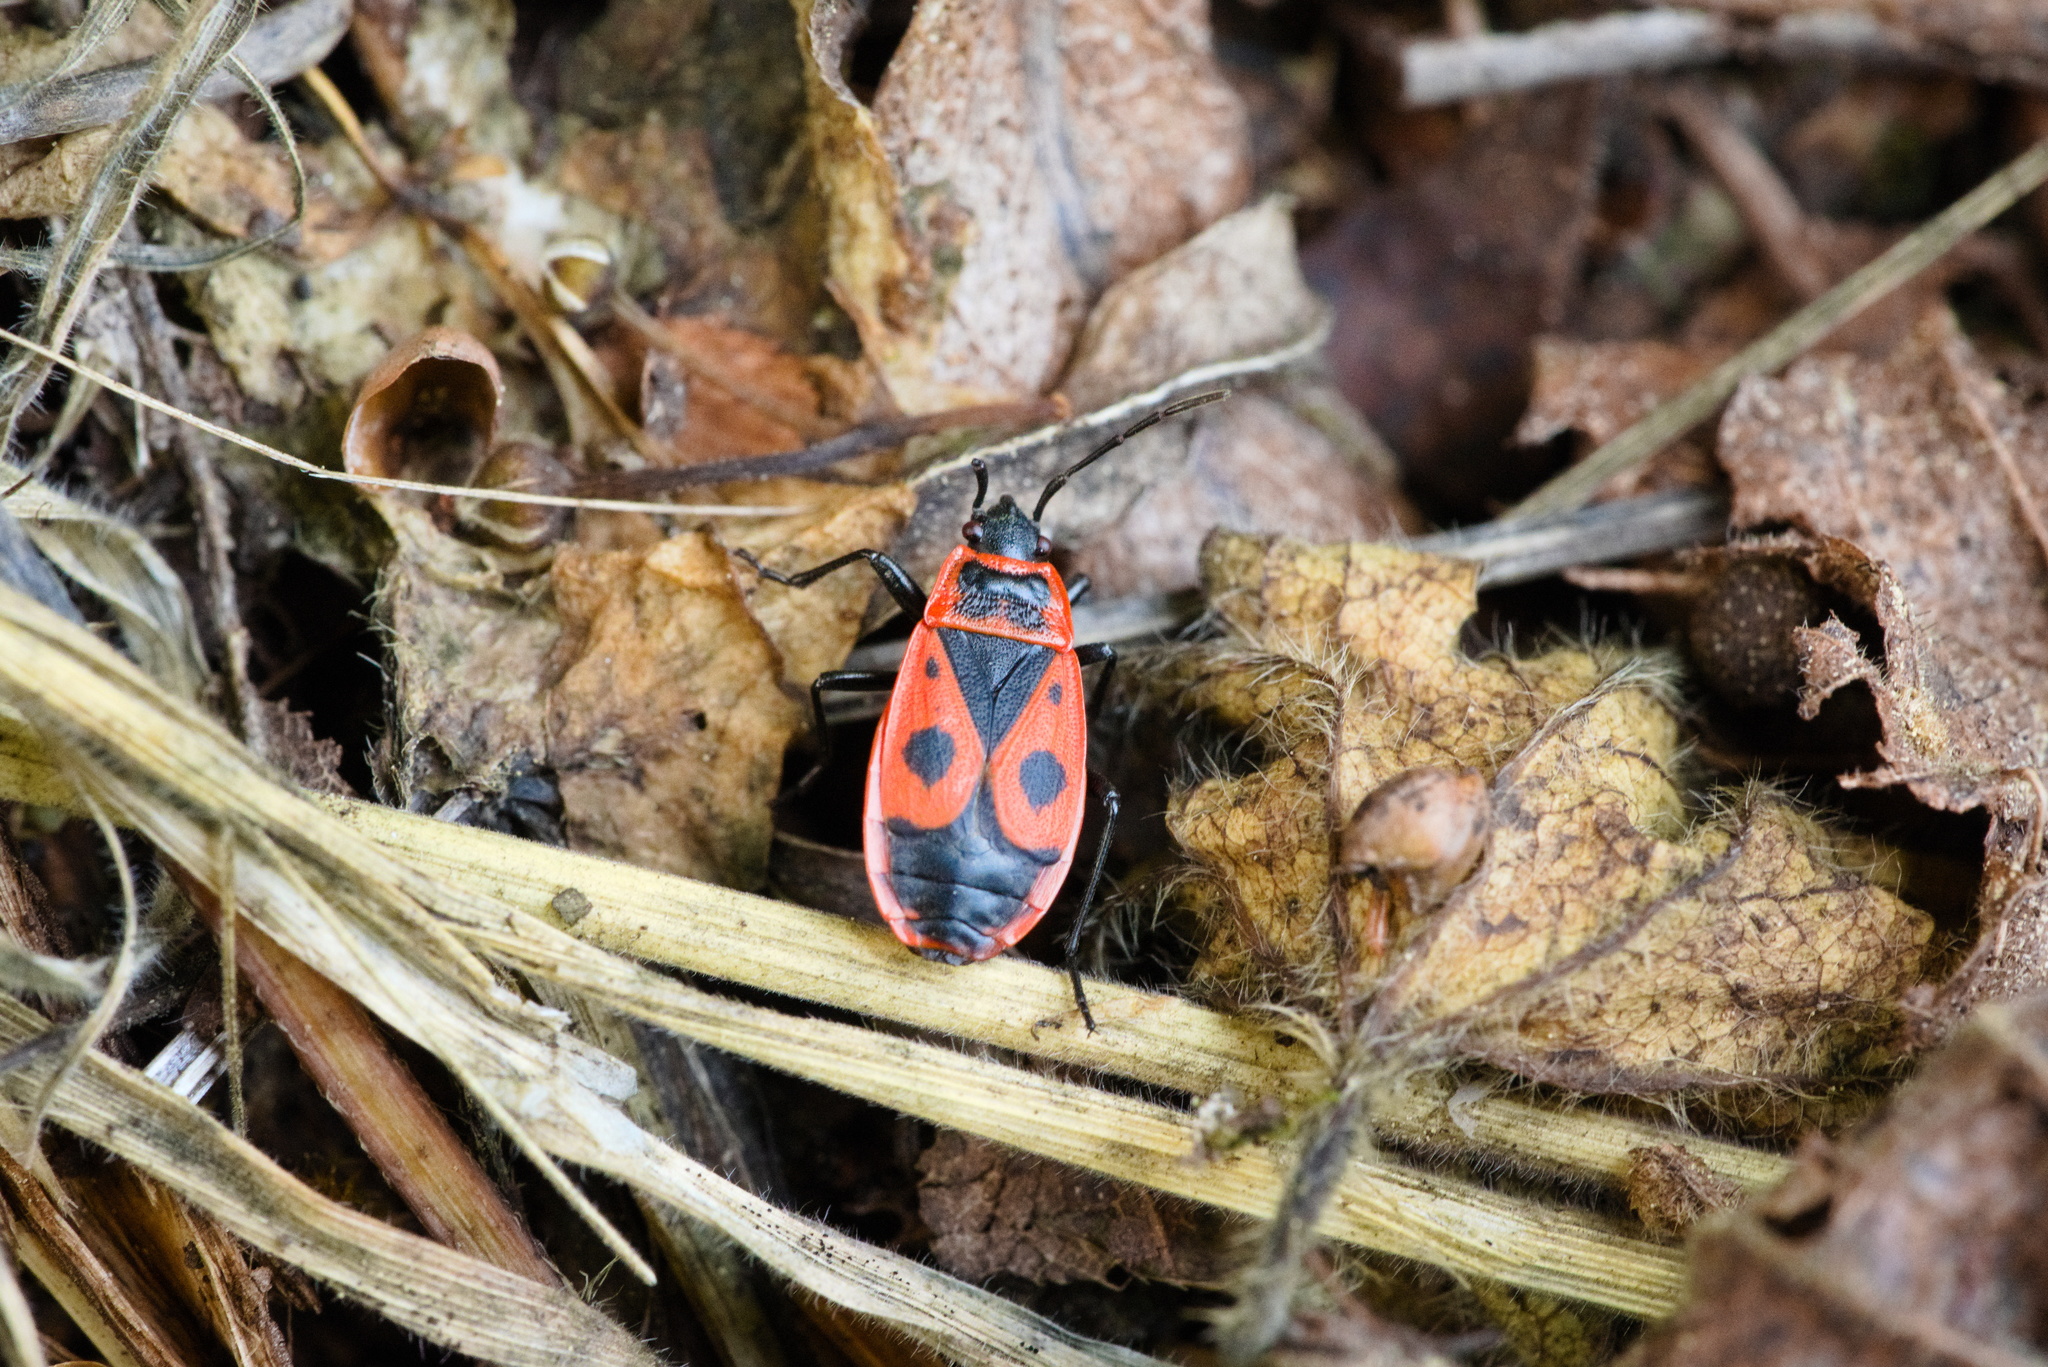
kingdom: Animalia
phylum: Arthropoda
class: Insecta
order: Hemiptera
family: Pyrrhocoridae
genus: Pyrrhocoris
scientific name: Pyrrhocoris apterus
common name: Firebug
